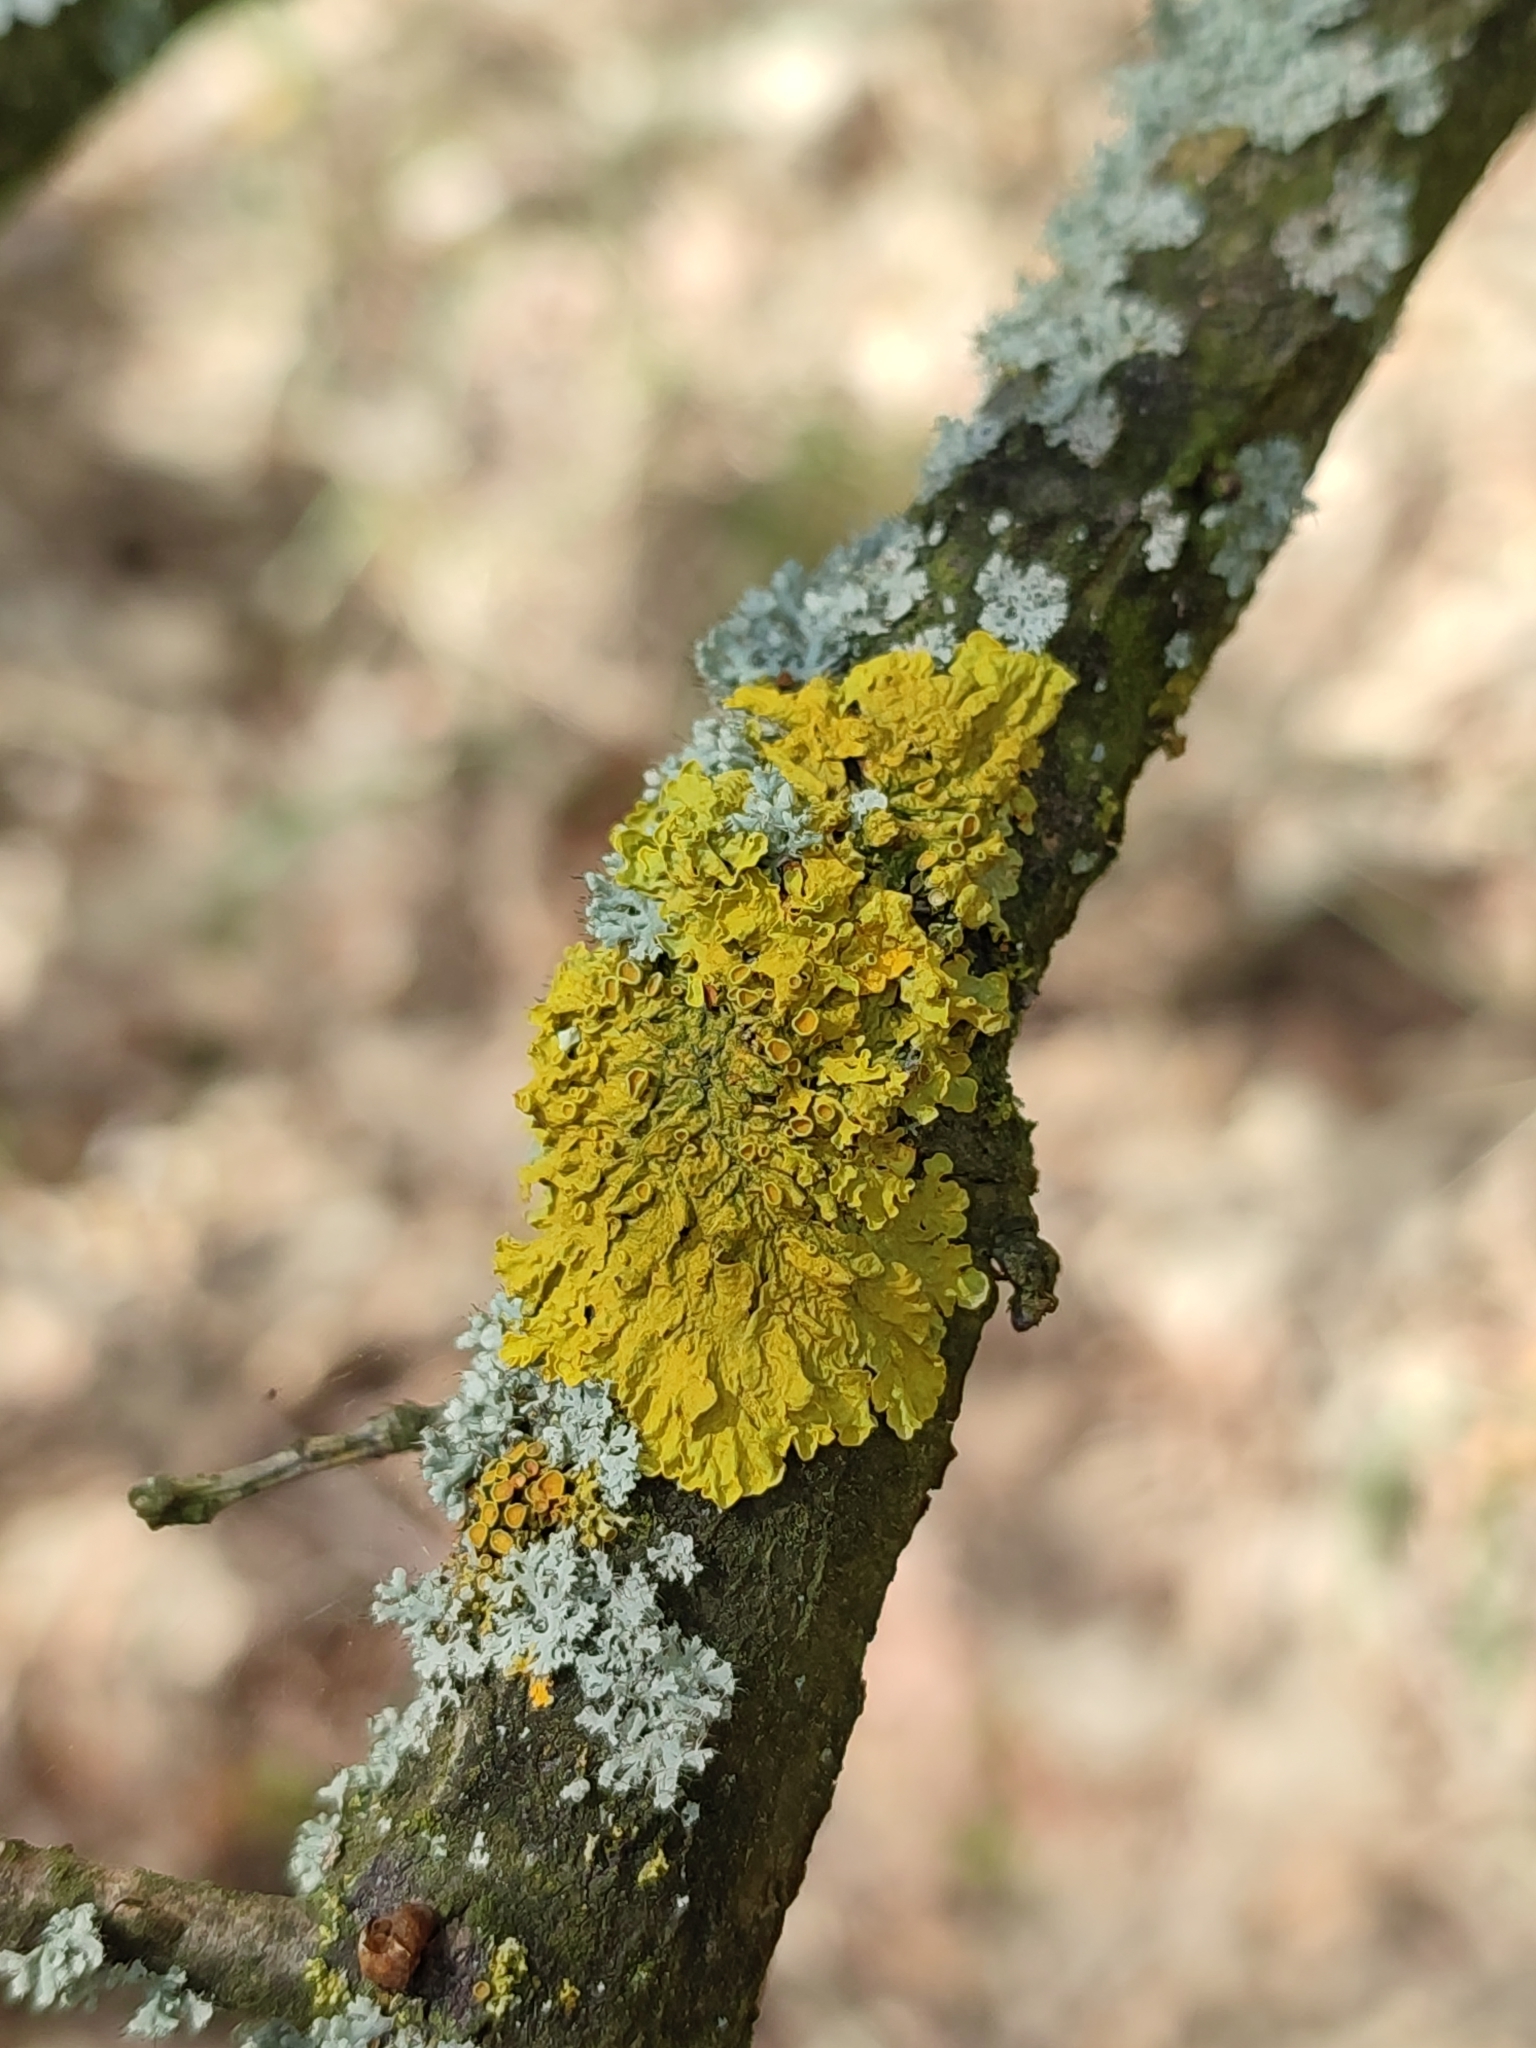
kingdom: Fungi
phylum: Ascomycota
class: Lecanoromycetes
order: Teloschistales
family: Teloschistaceae
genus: Xanthoria
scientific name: Xanthoria parietina
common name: Common orange lichen
